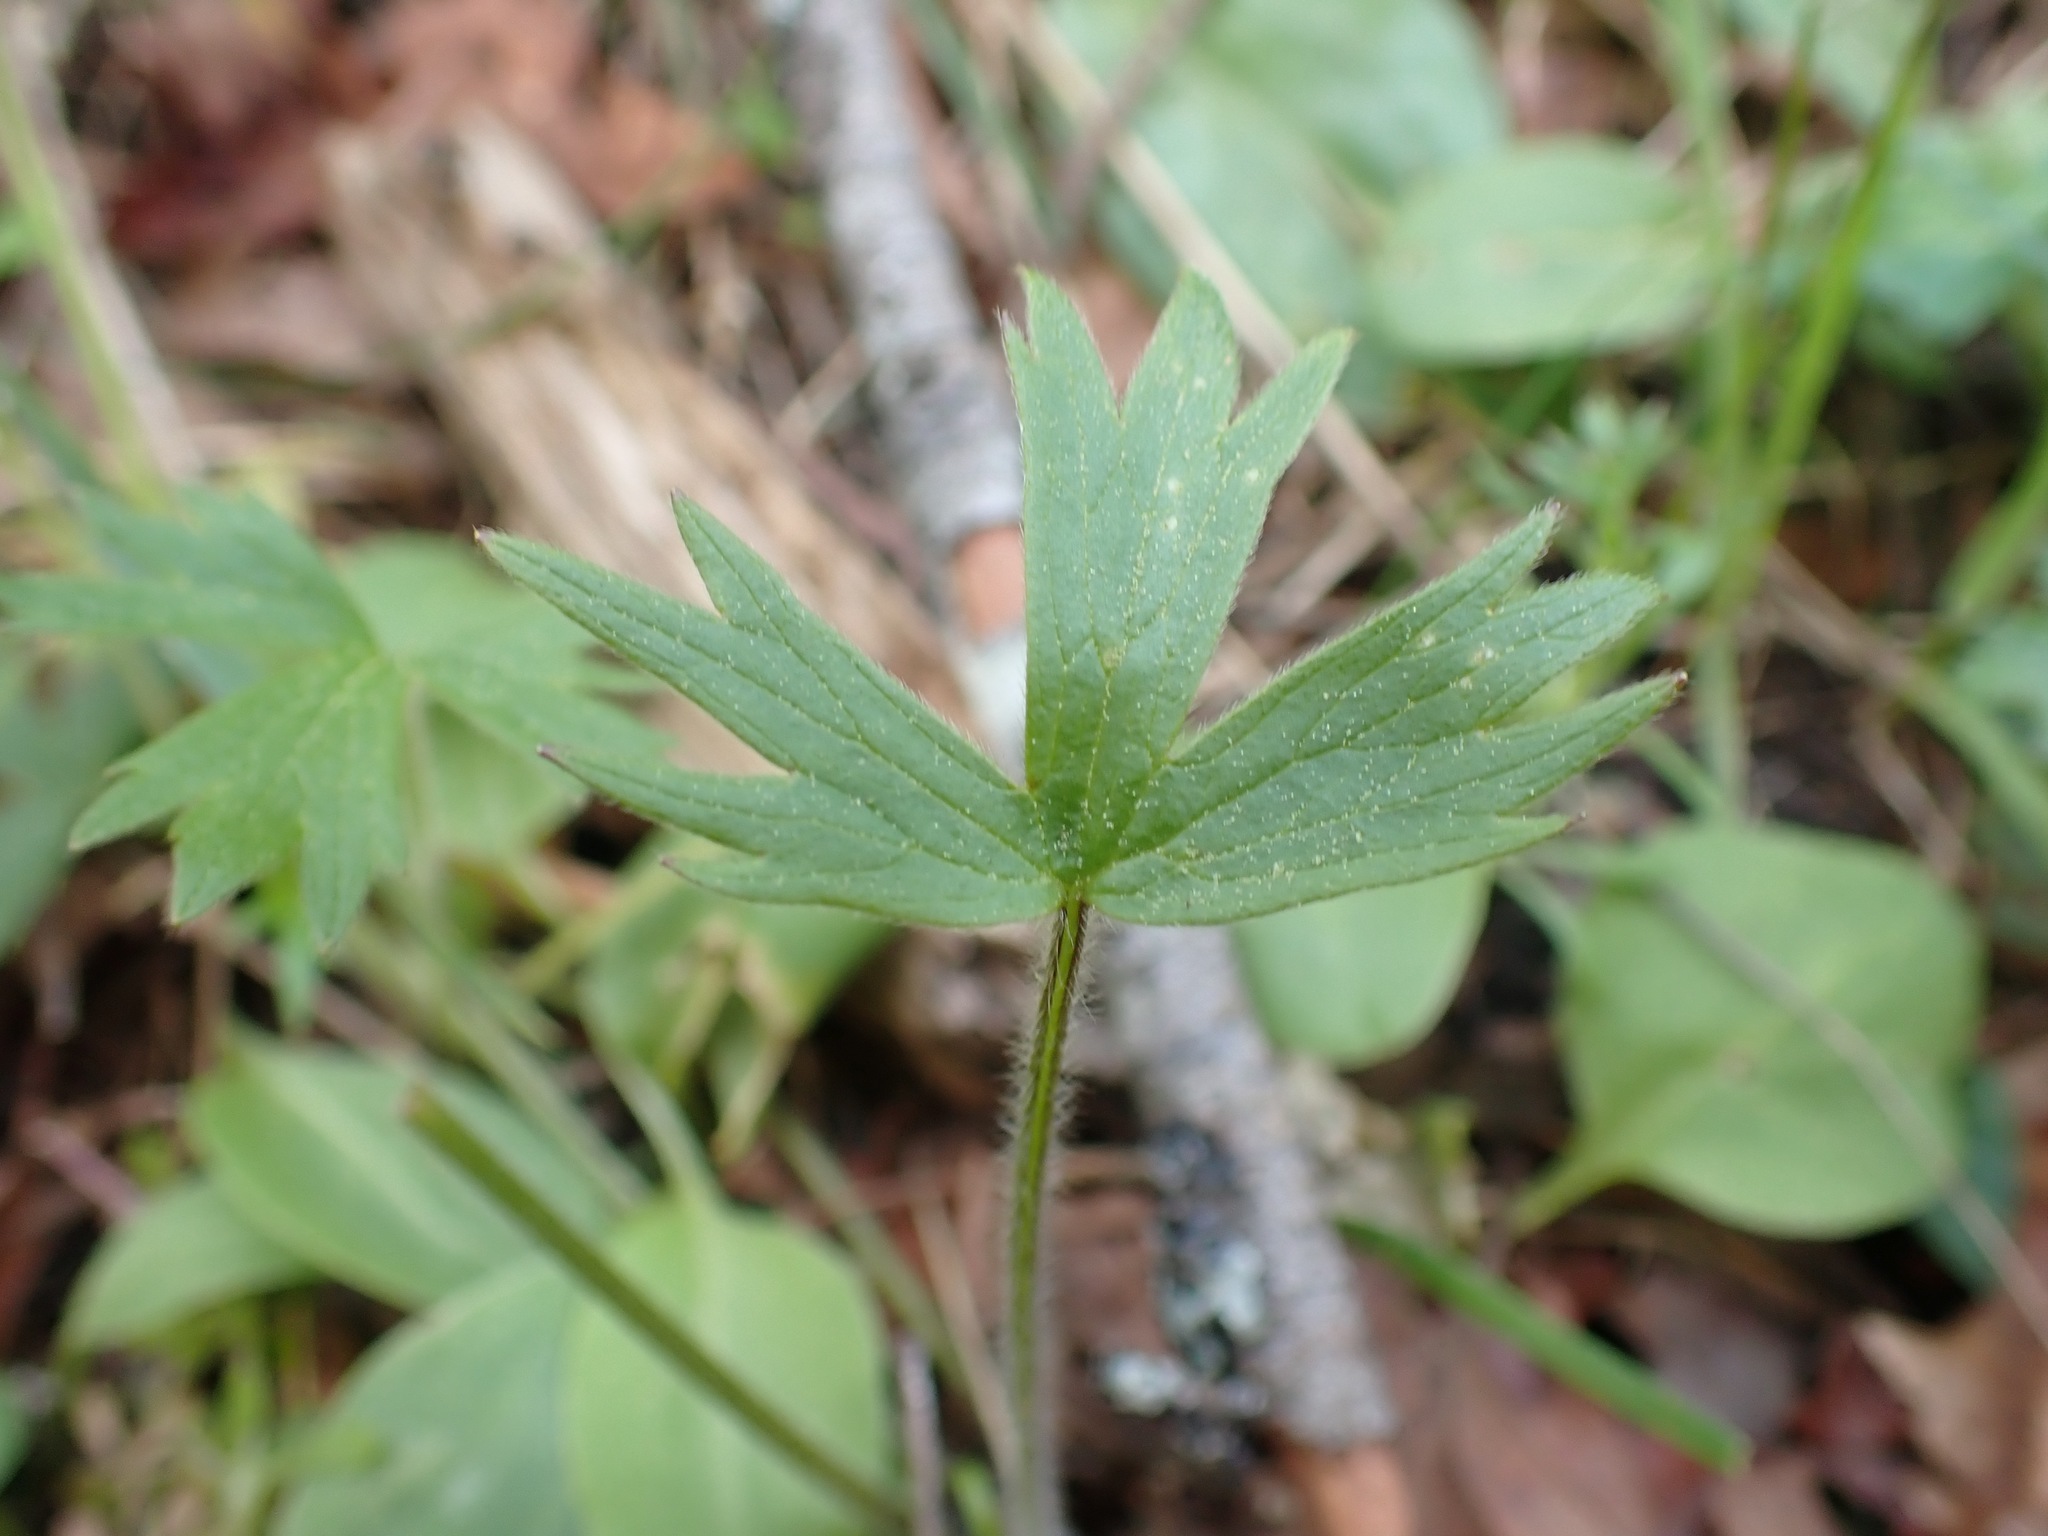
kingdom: Plantae
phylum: Tracheophyta
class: Magnoliopsida
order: Ranunculales
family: Ranunculaceae
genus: Ranunculus
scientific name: Ranunculus occidentalis
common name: Western buttercup
